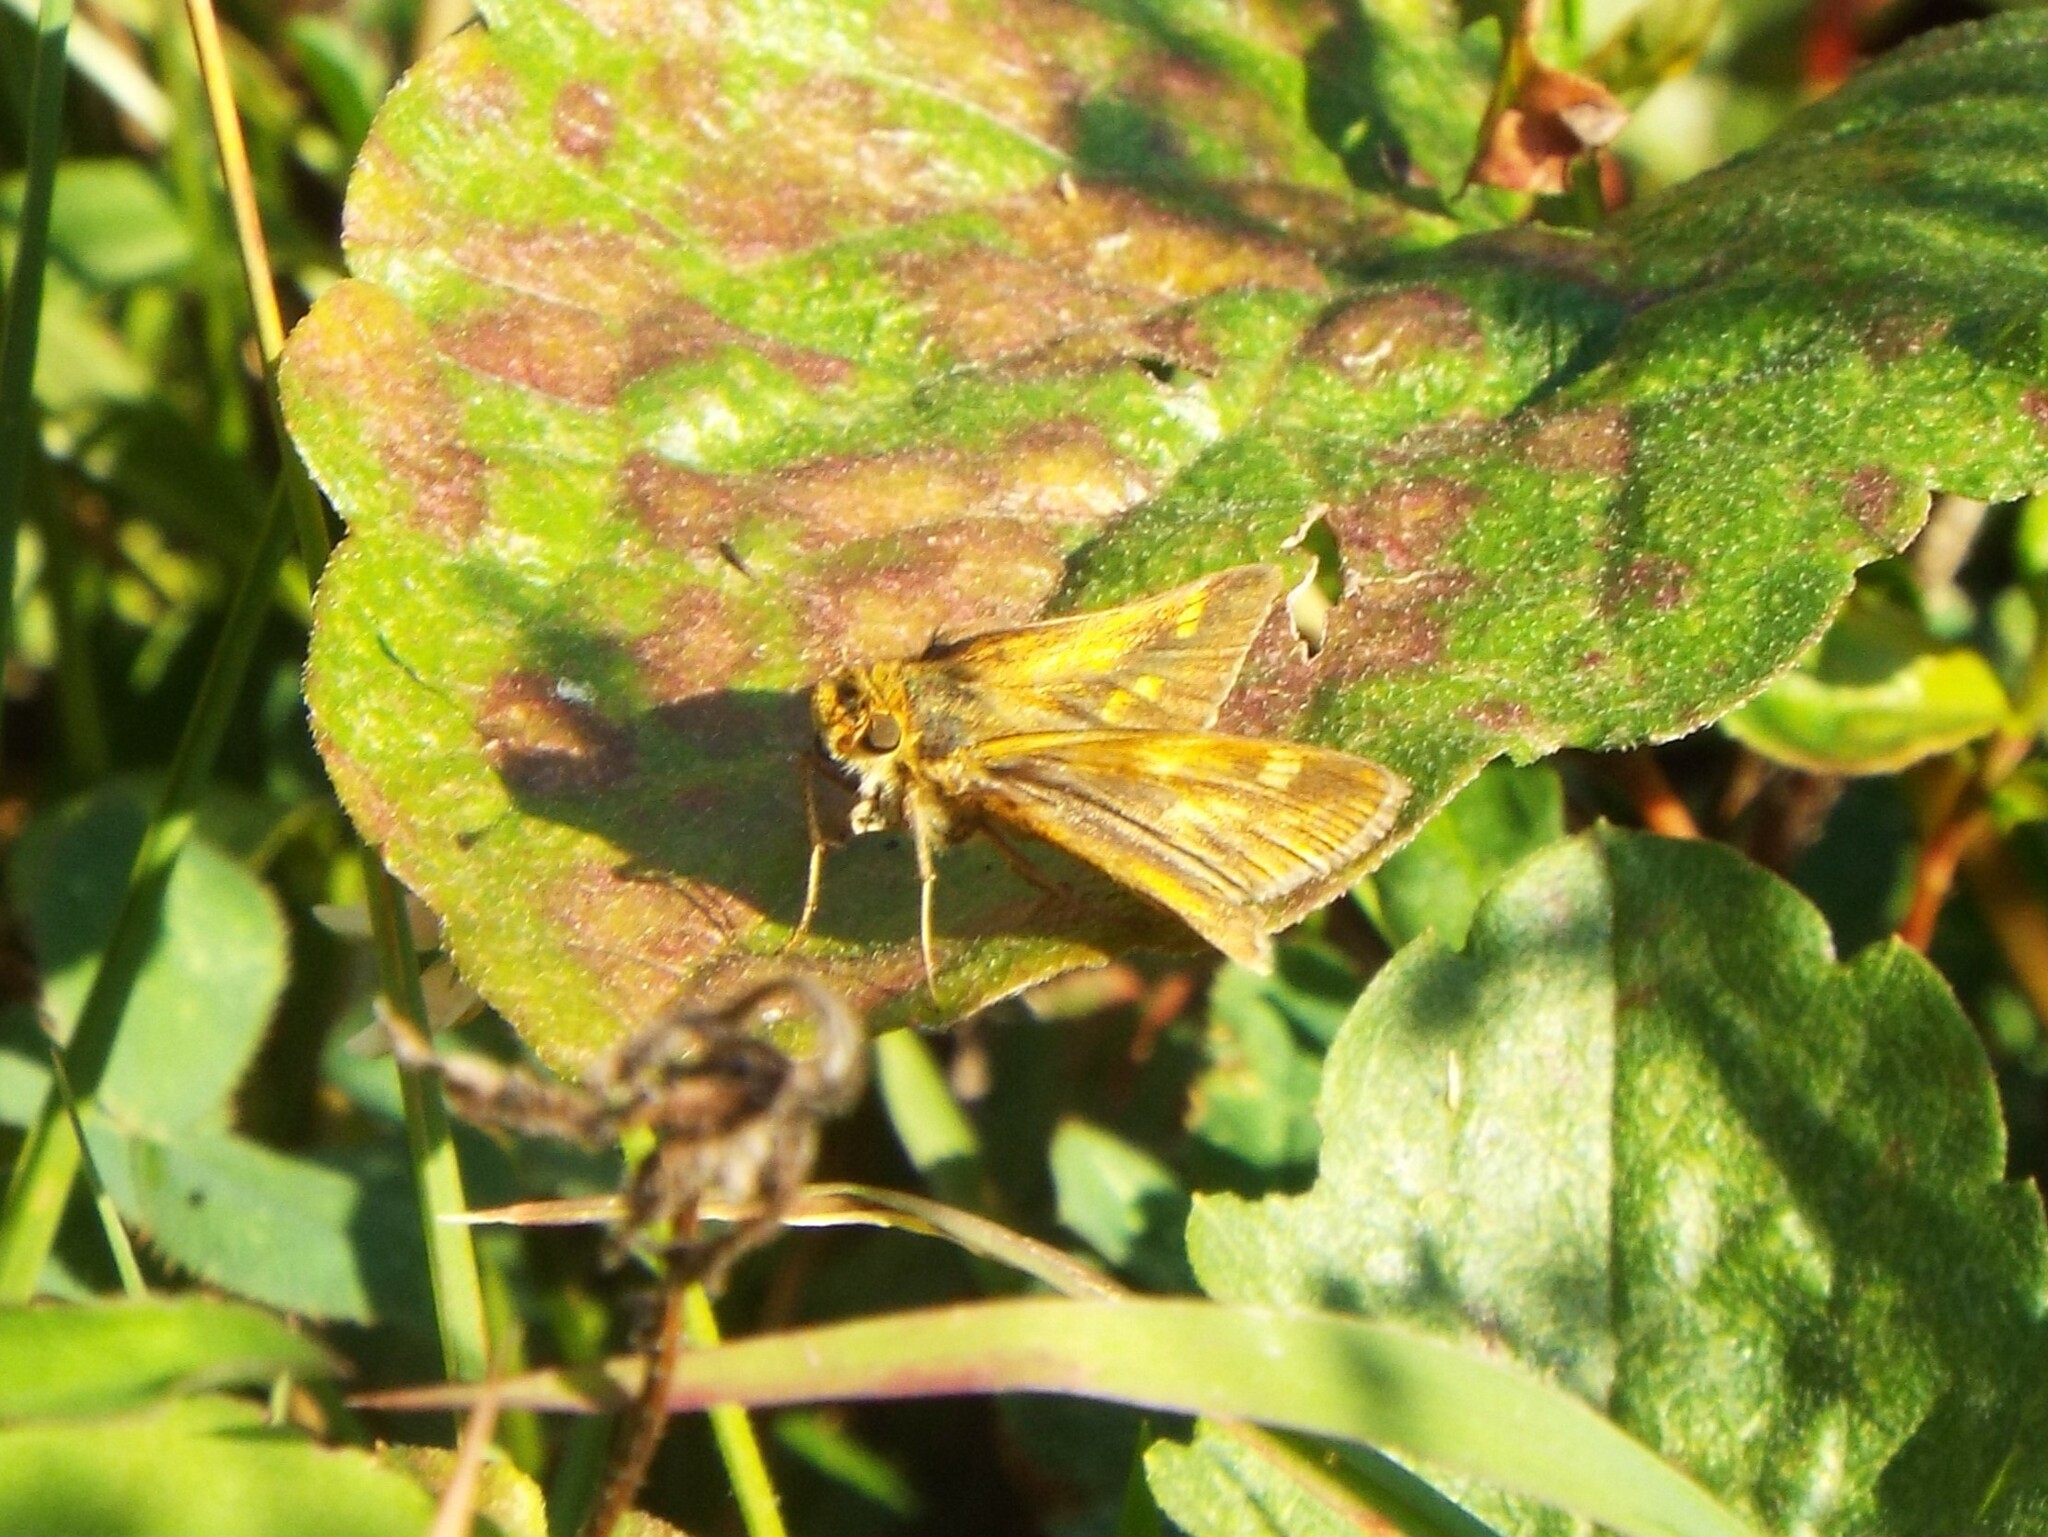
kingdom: Animalia
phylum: Arthropoda
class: Insecta
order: Lepidoptera
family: Hesperiidae
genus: Polites
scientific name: Polites coras
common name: Peck's skipper
